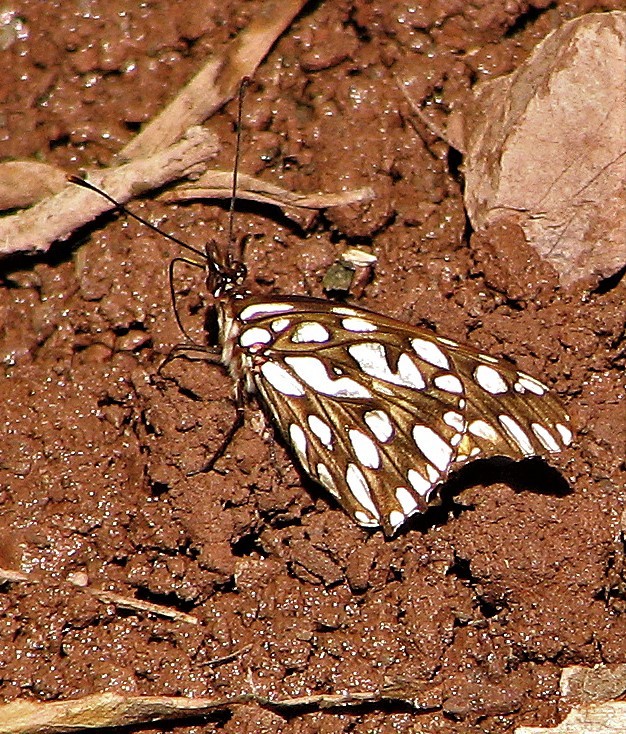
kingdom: Animalia
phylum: Arthropoda
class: Insecta
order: Lepidoptera
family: Nymphalidae
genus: Dione
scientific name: Dione moneta
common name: Mexican silverspot
